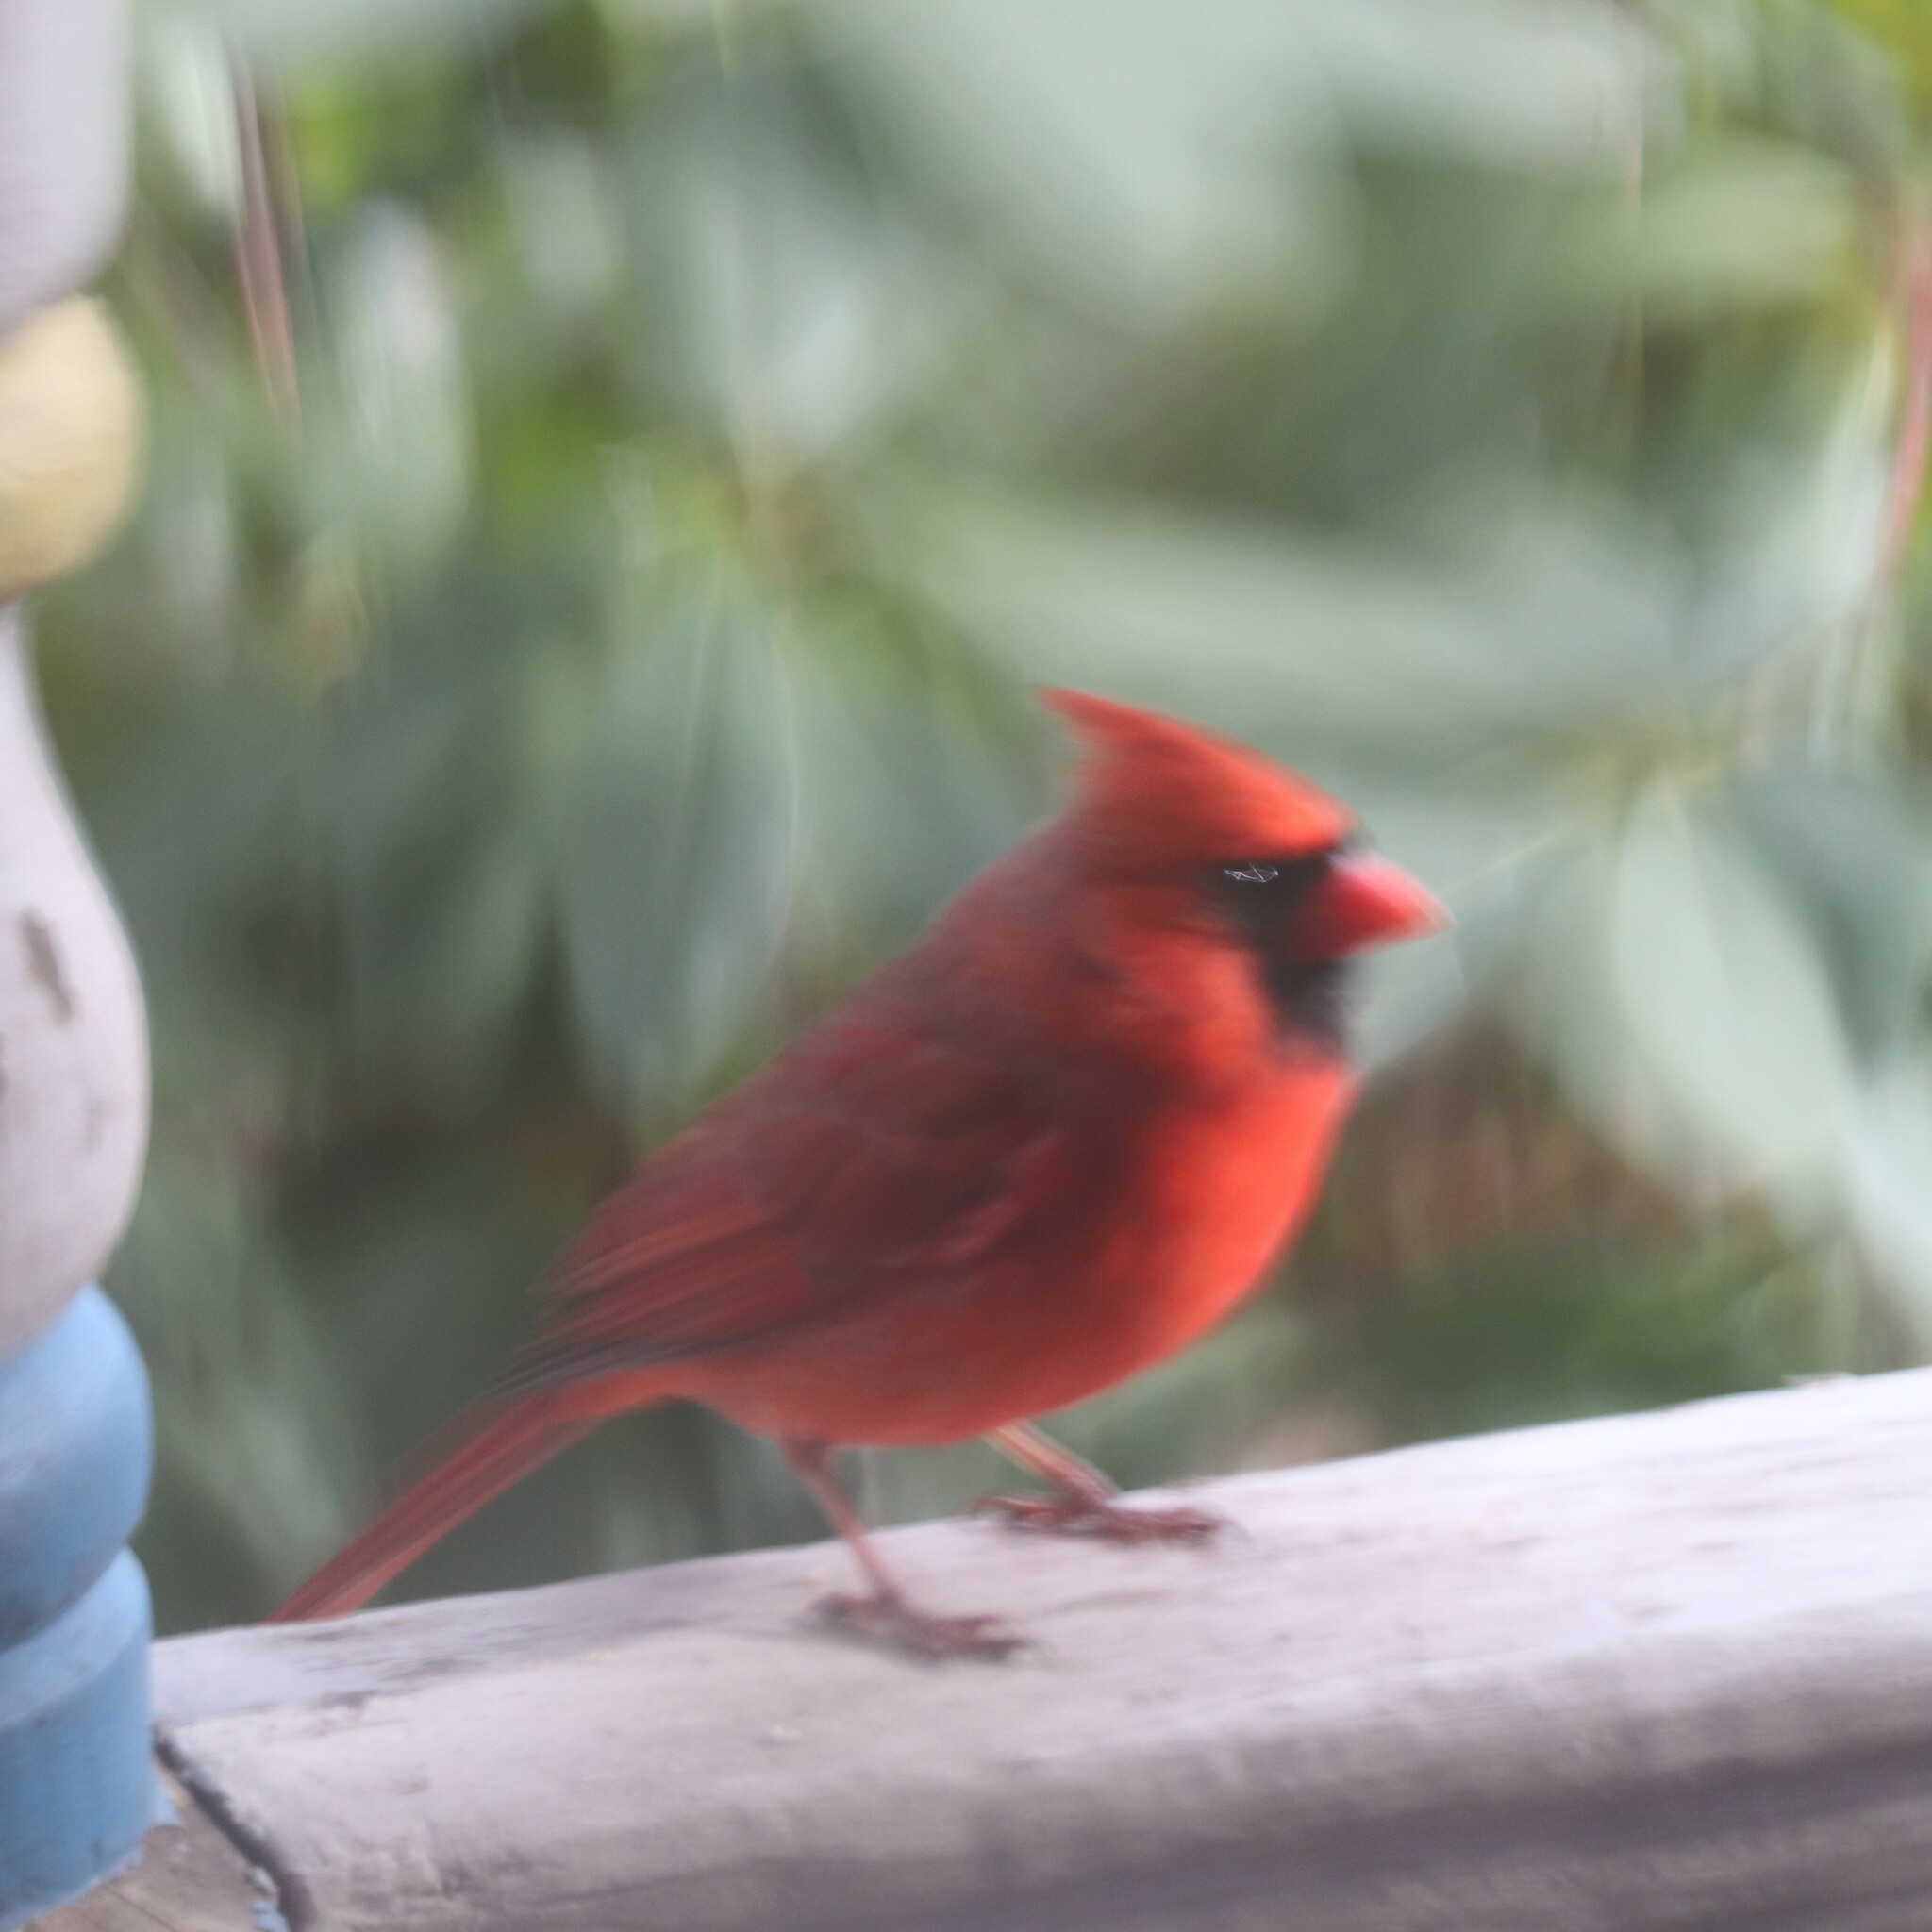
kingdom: Animalia
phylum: Chordata
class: Aves
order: Passeriformes
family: Cardinalidae
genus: Cardinalis
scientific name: Cardinalis cardinalis
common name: Northern cardinal
